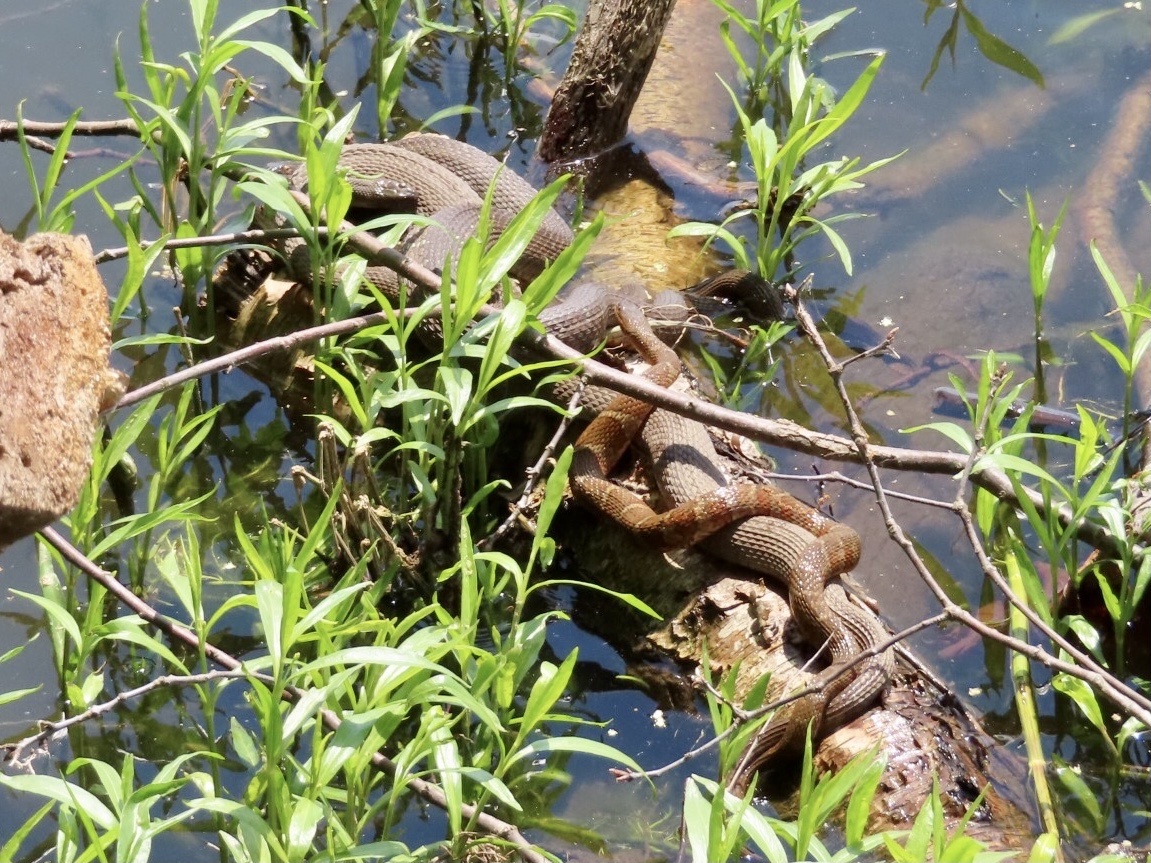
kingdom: Animalia
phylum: Chordata
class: Squamata
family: Colubridae
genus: Nerodia
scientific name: Nerodia sipedon
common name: Northern water snake
